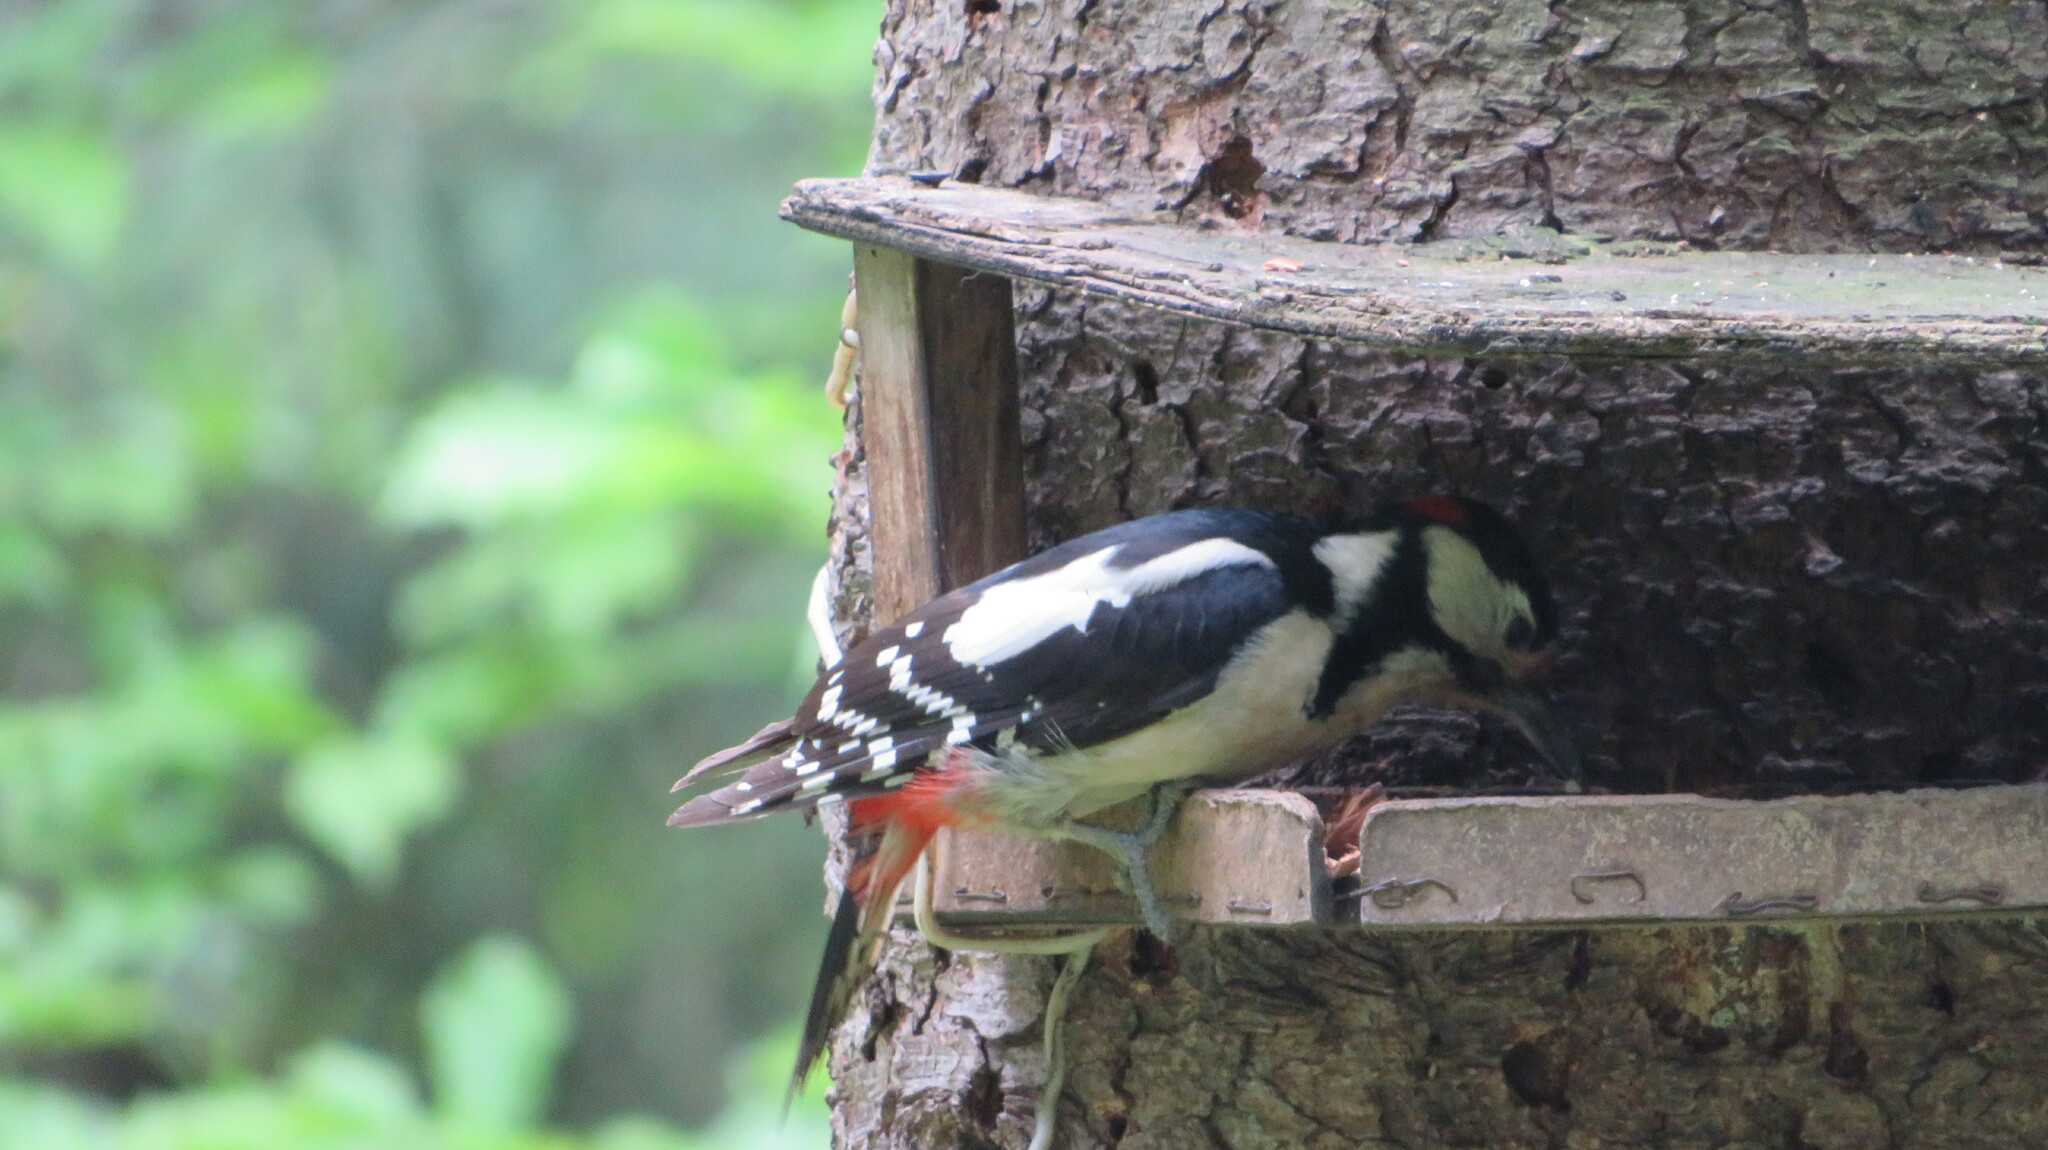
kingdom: Animalia
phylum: Chordata
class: Aves
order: Piciformes
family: Picidae
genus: Dendrocopos
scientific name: Dendrocopos major
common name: Great spotted woodpecker
